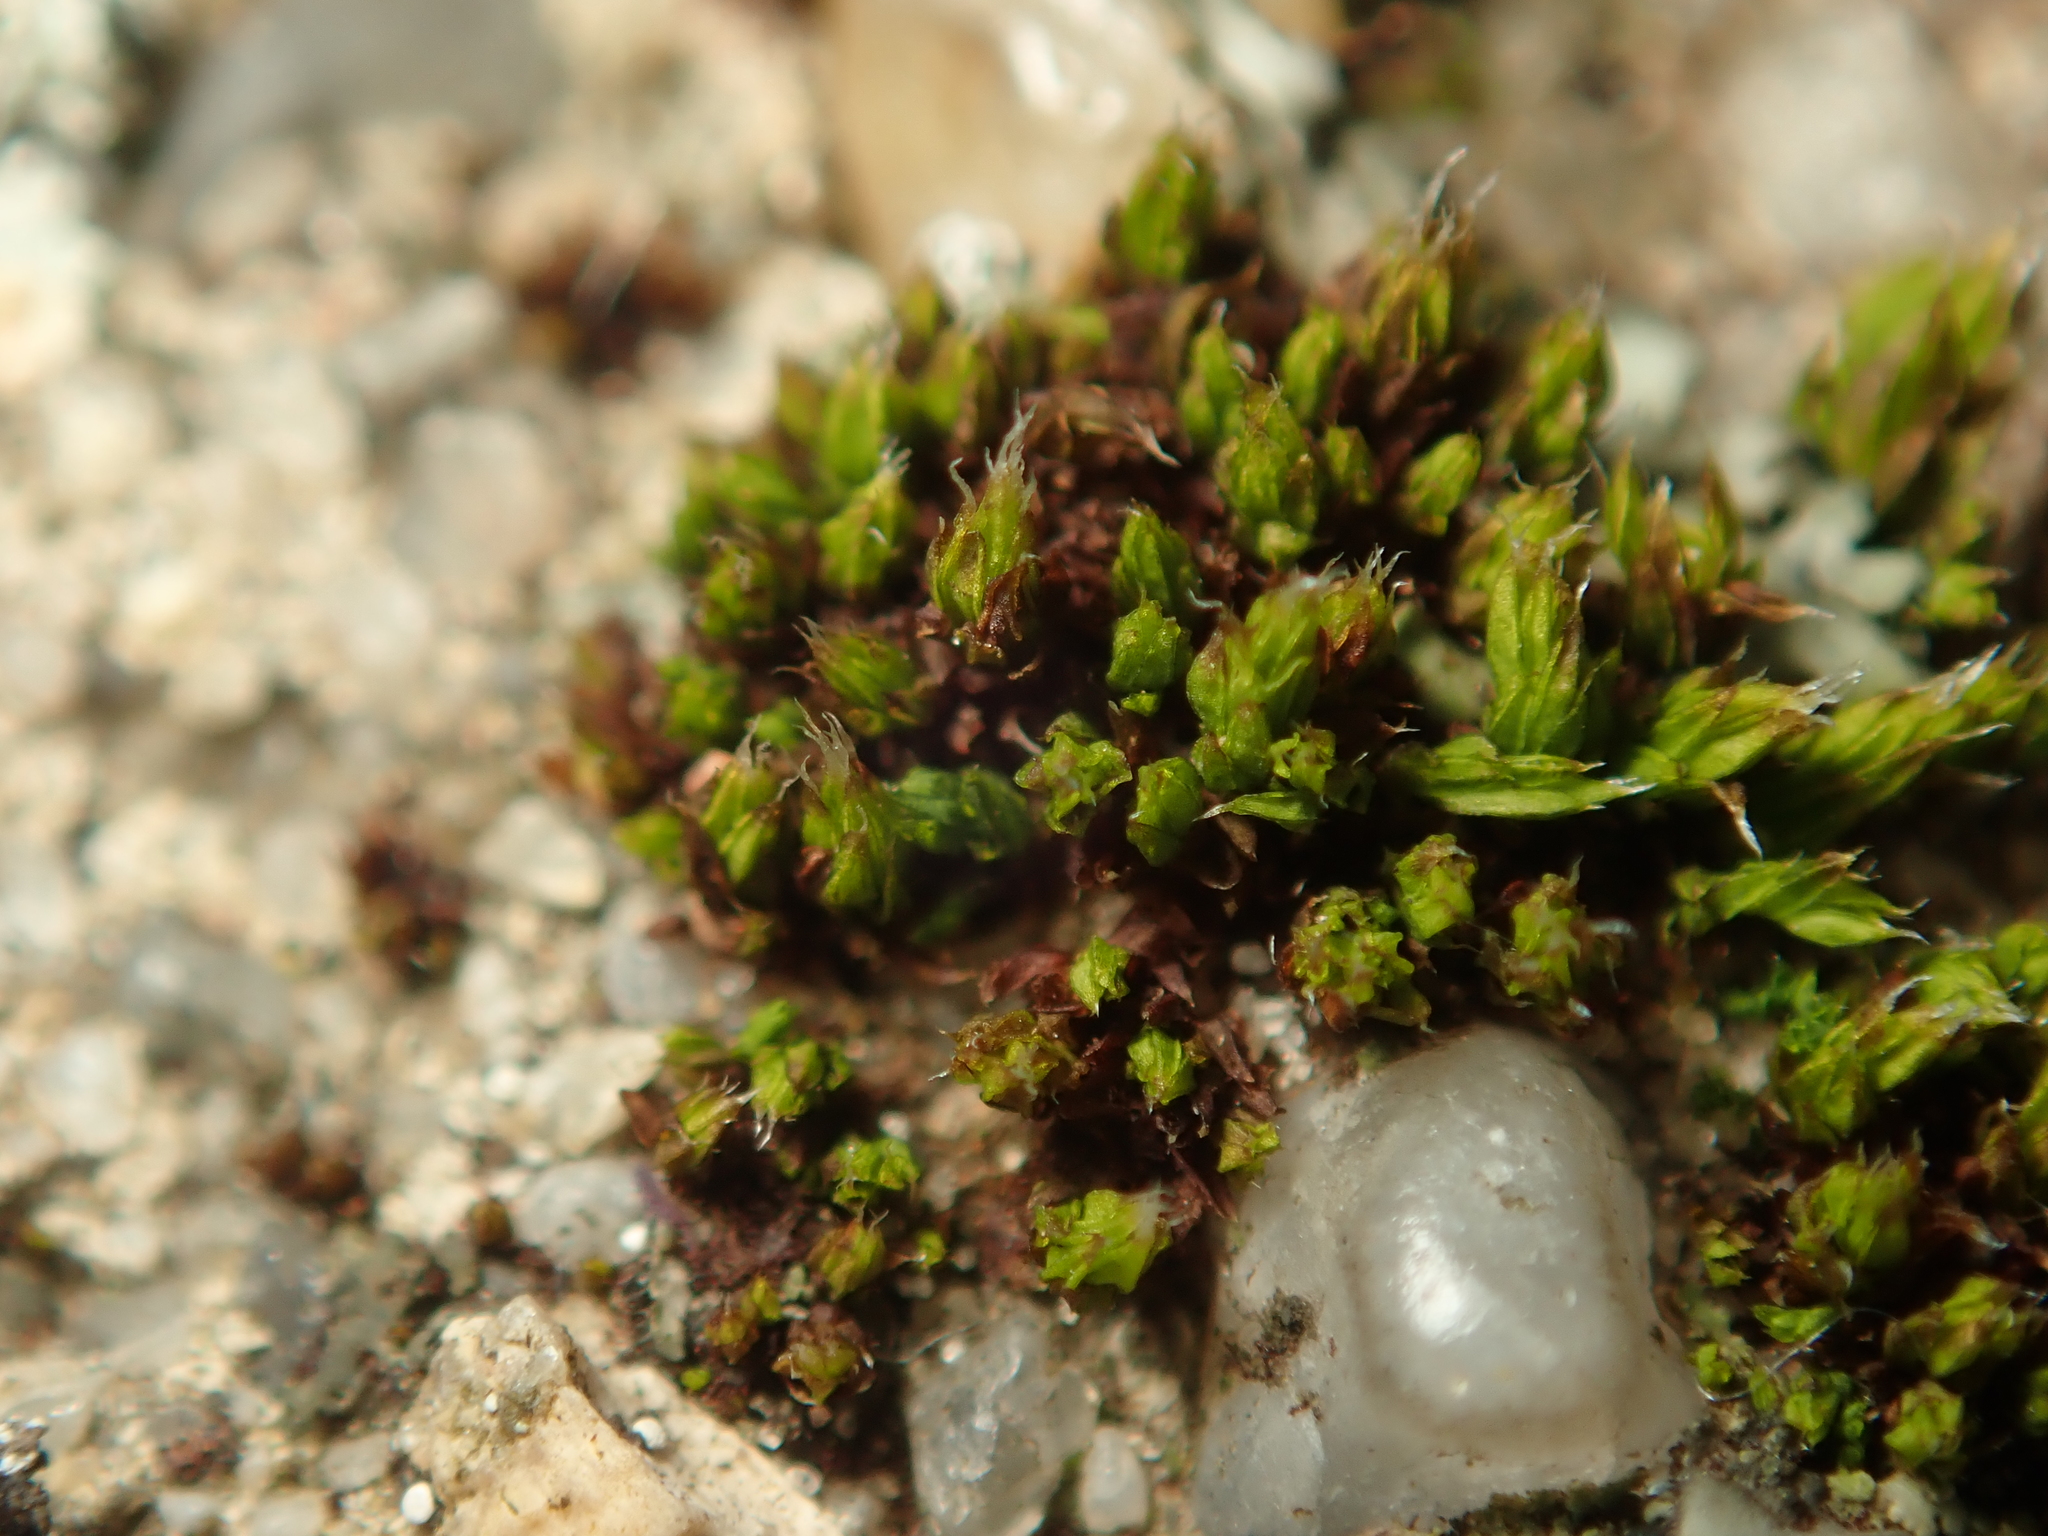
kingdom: Plantae
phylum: Bryophyta
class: Bryopsida
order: Orthotrichales
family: Orthotrichaceae
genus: Orthotrichum
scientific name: Orthotrichum diaphanum
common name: White-tipped bristle-moss
